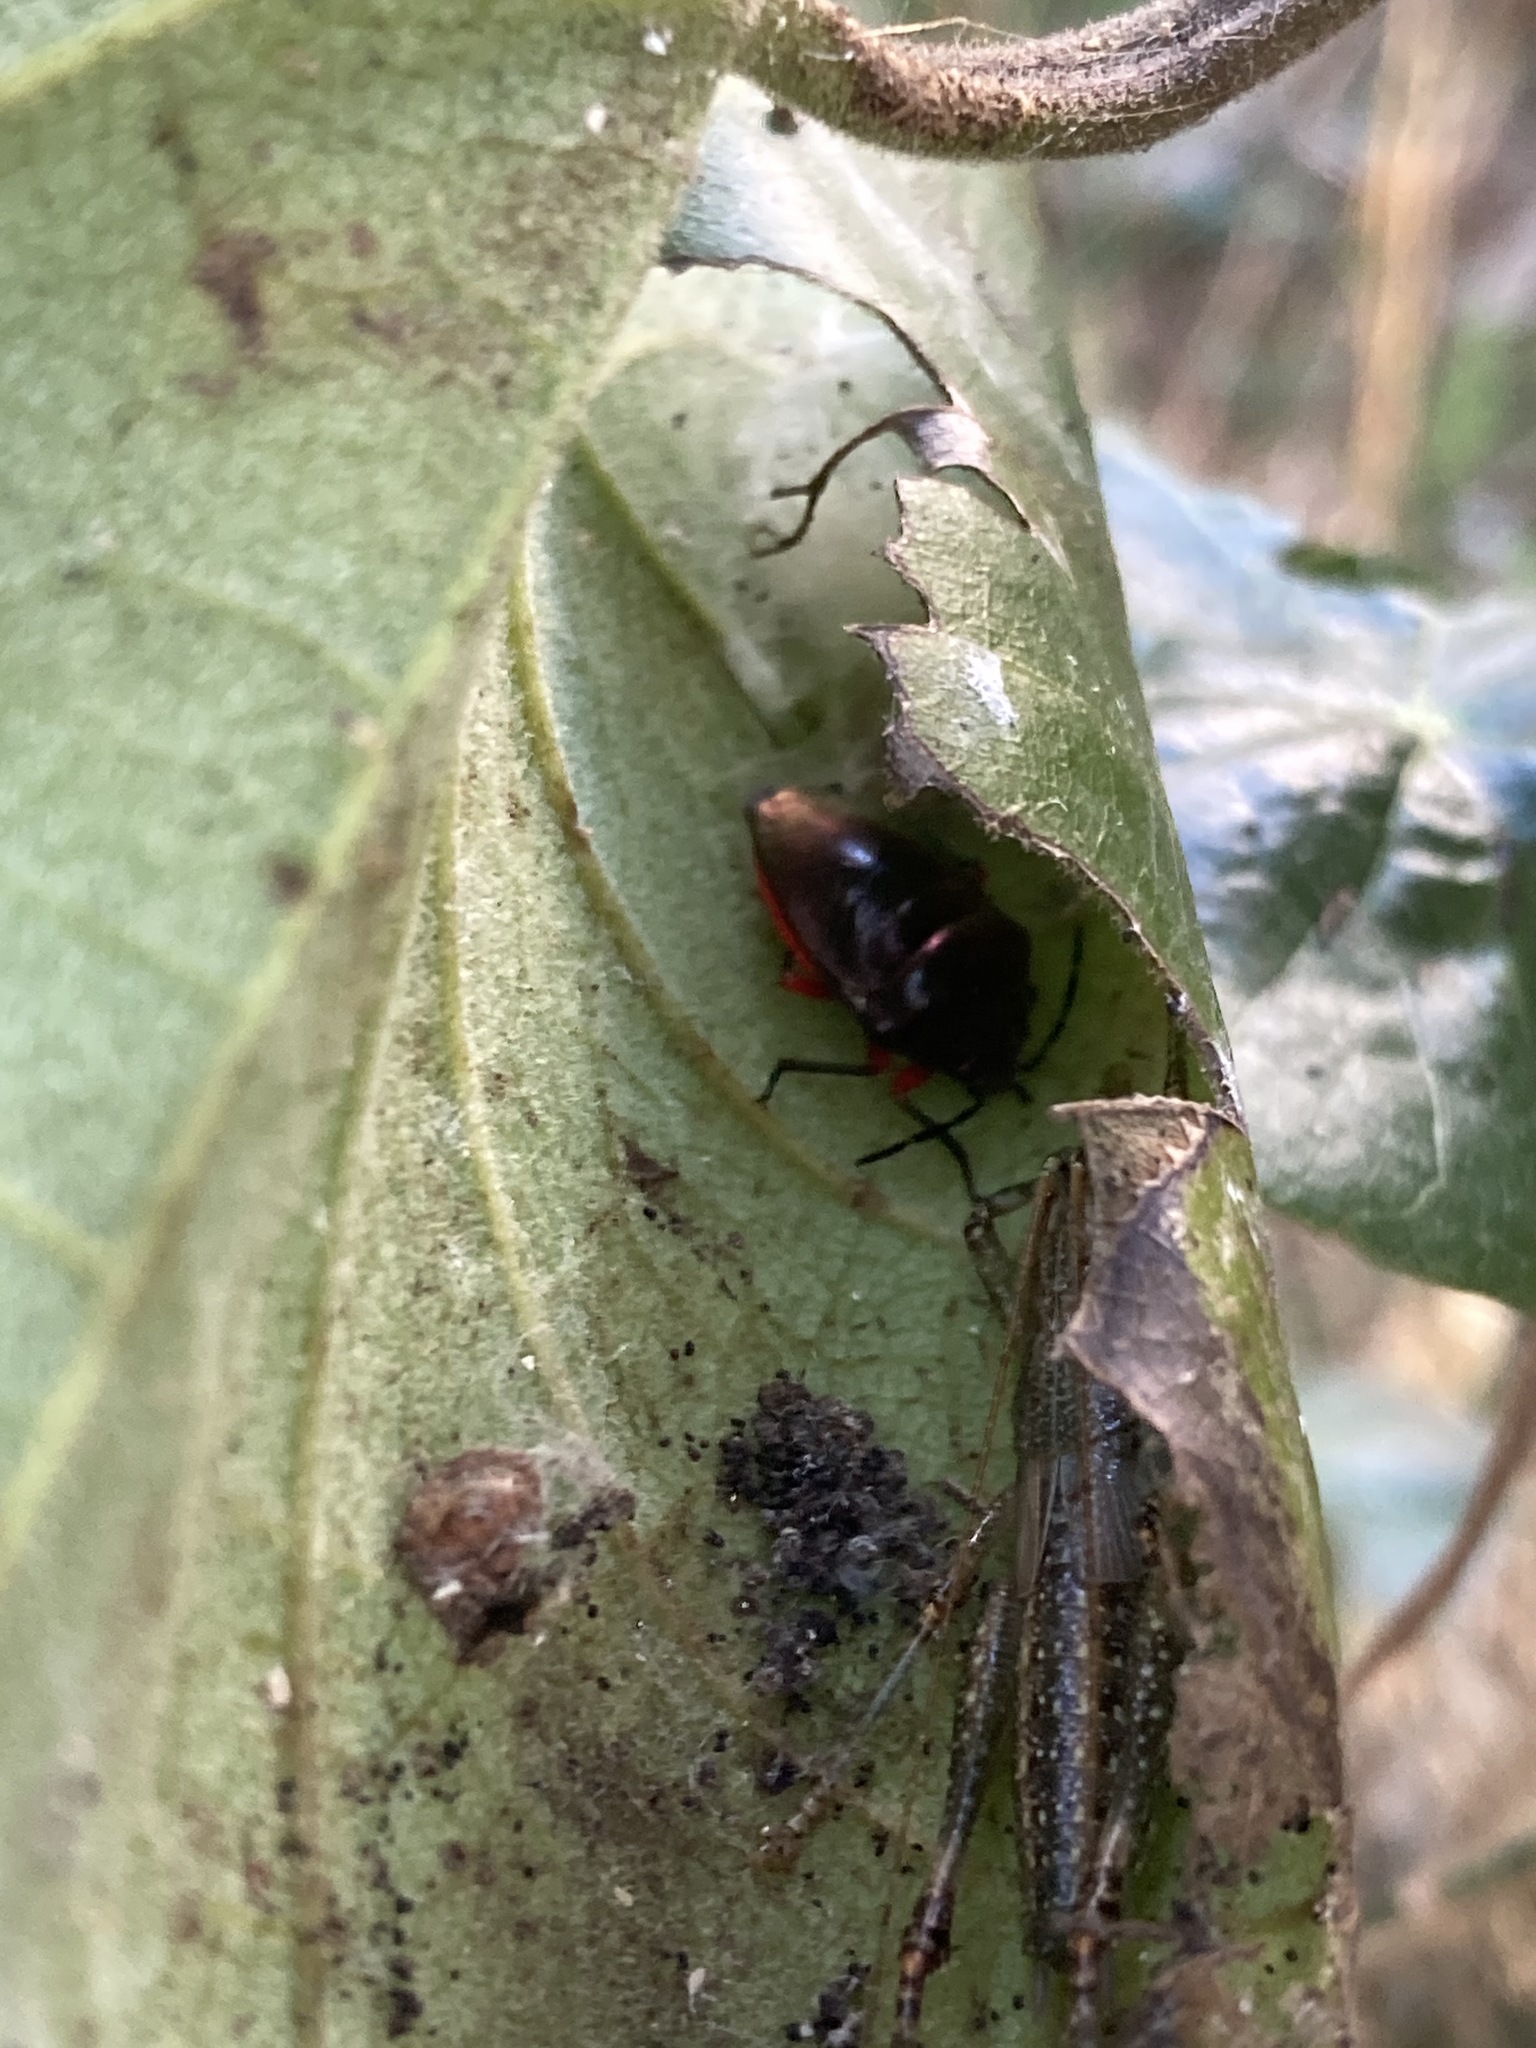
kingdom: Animalia
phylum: Arthropoda
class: Insecta
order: Hemiptera
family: Scutelleridae
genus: Lampromicra
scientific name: Lampromicra
